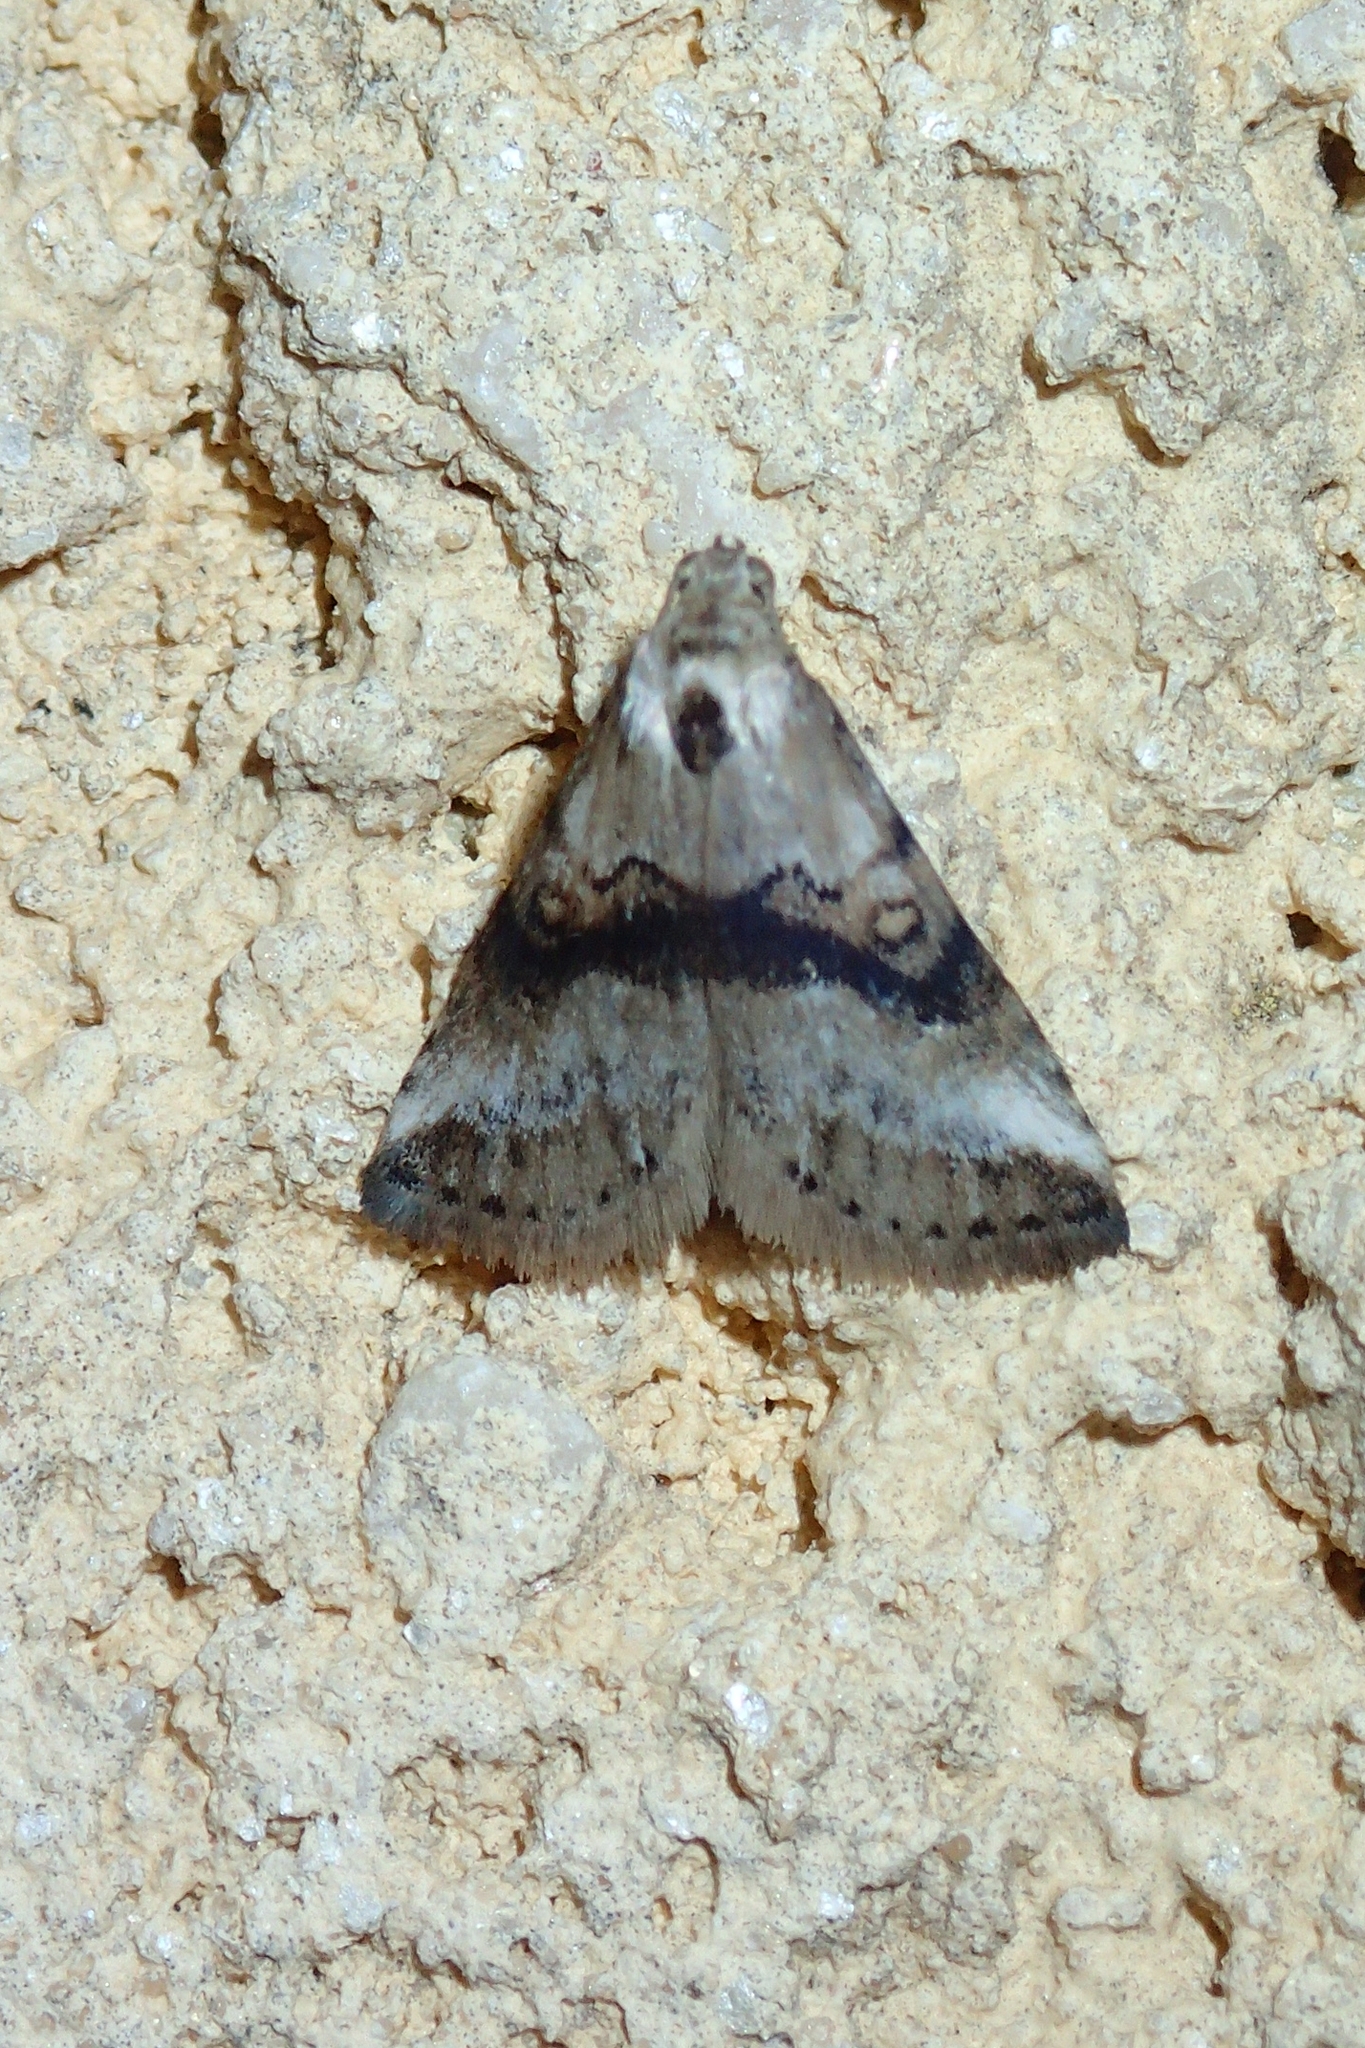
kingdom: Animalia
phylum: Arthropoda
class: Insecta
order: Lepidoptera
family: Erebidae
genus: Zebeeba
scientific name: Zebeeba falsalis
